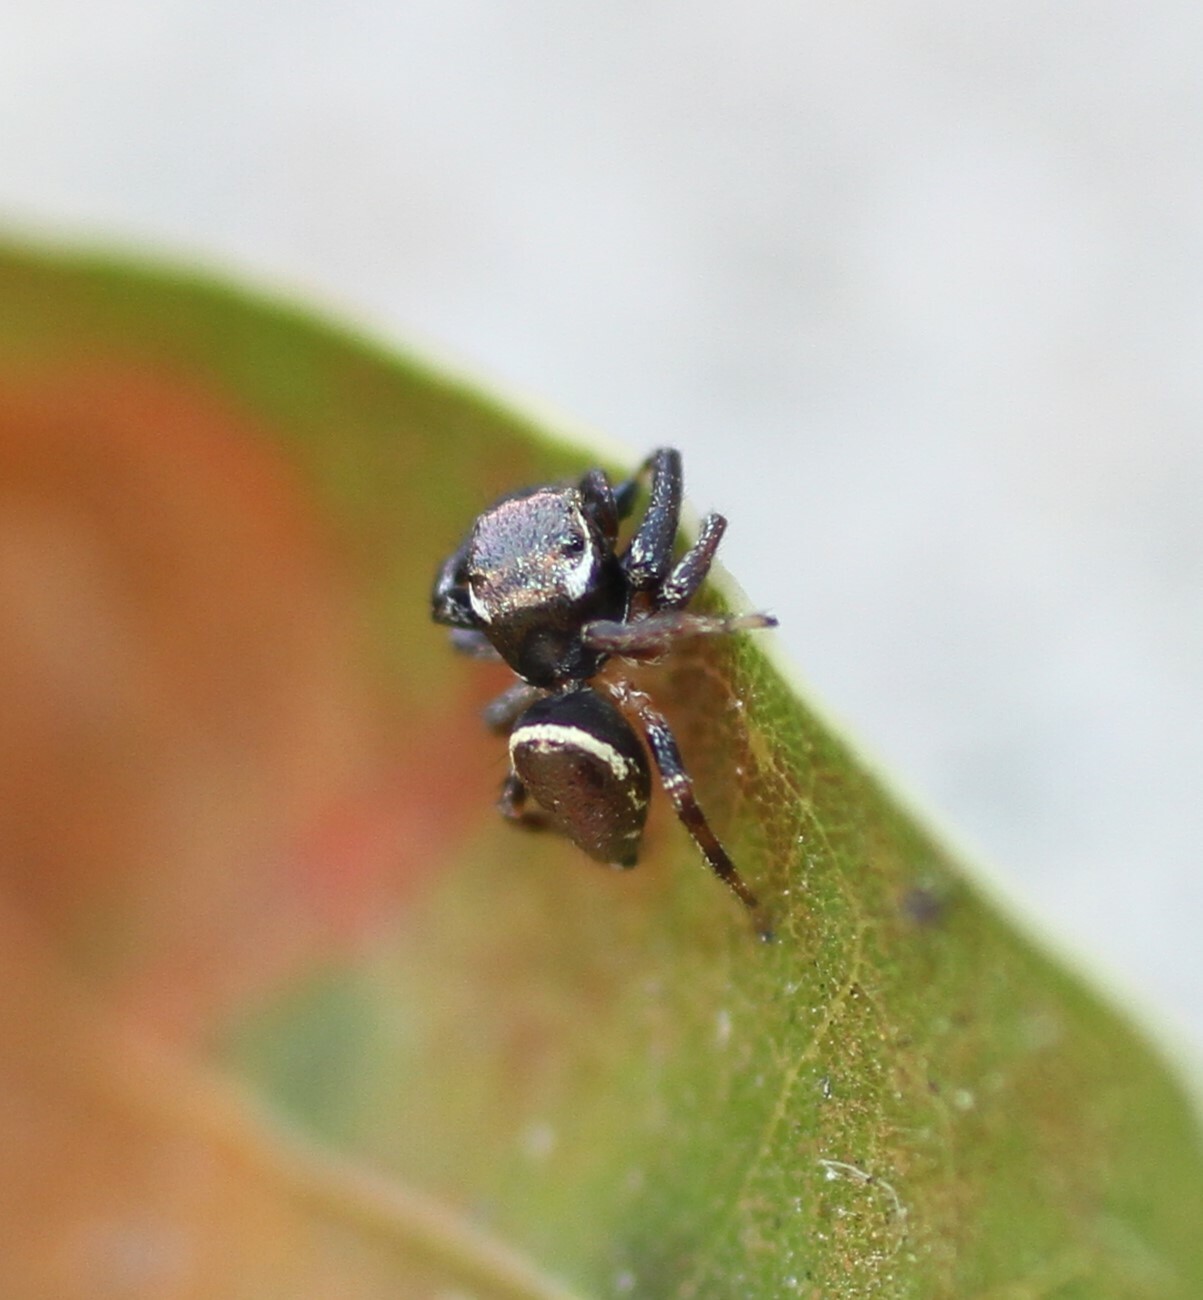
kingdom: Animalia
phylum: Arthropoda
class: Arachnida
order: Araneae
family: Salticidae
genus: Messua
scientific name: Messua limbata
